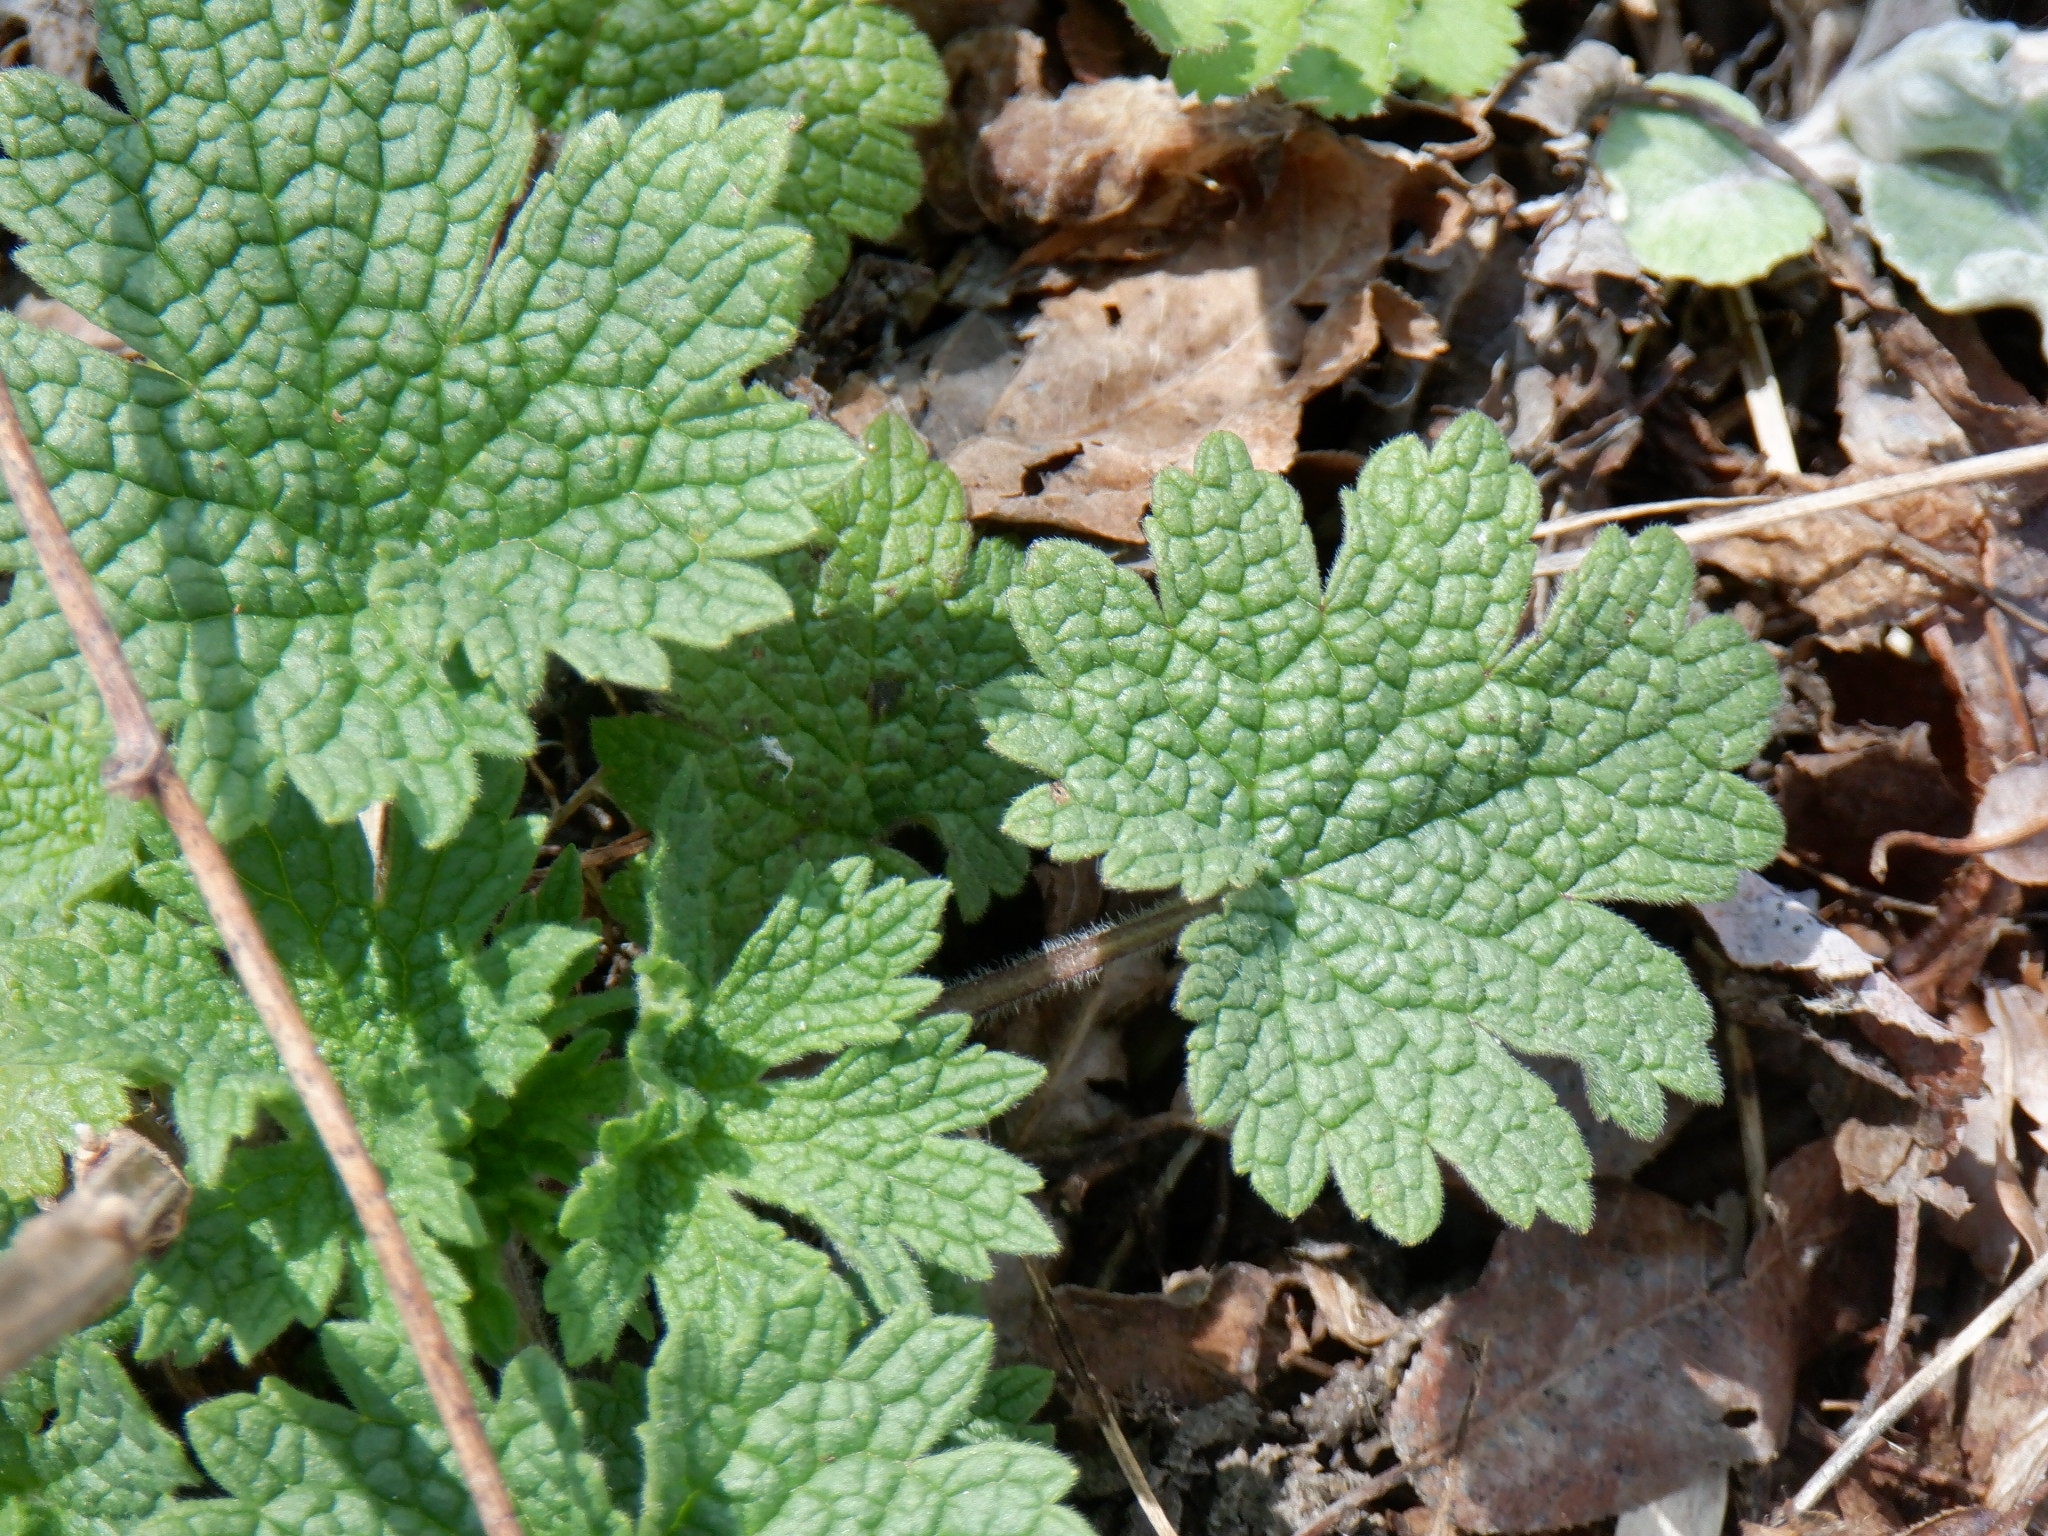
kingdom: Plantae
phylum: Tracheophyta
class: Magnoliopsida
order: Lamiales
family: Lamiaceae
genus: Leonurus
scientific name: Leonurus cardiaca
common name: Motherwort
